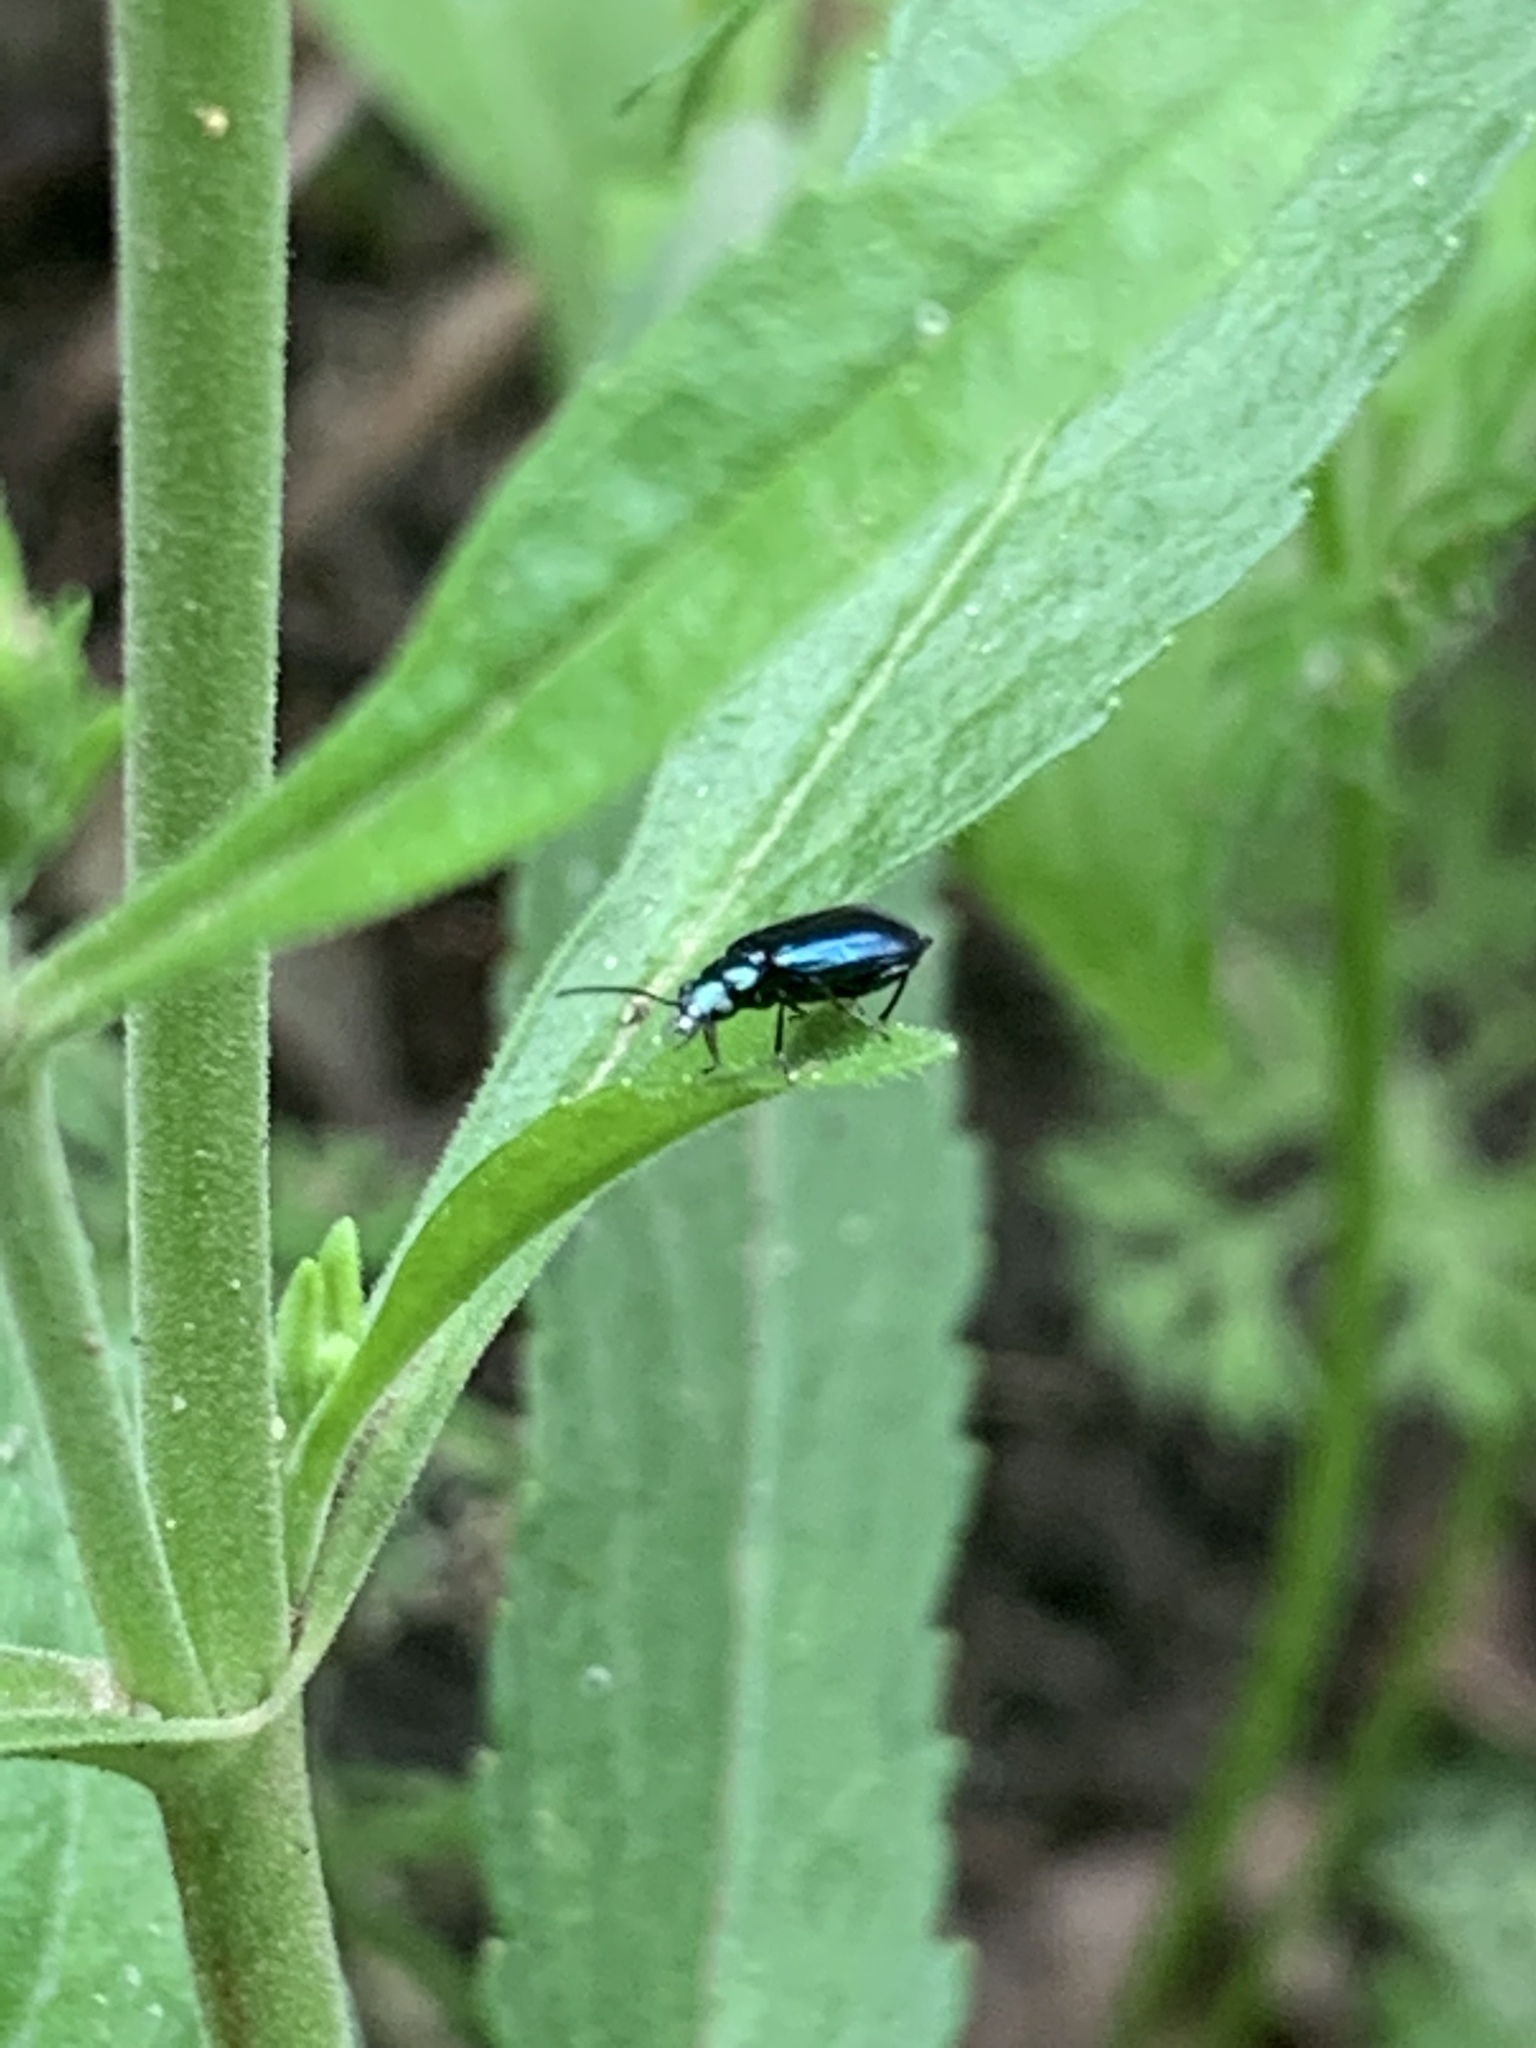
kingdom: Animalia
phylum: Arthropoda
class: Insecta
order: Coleoptera
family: Carabidae
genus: Lebia
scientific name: Lebia viridis
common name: Flower lebia beetle
